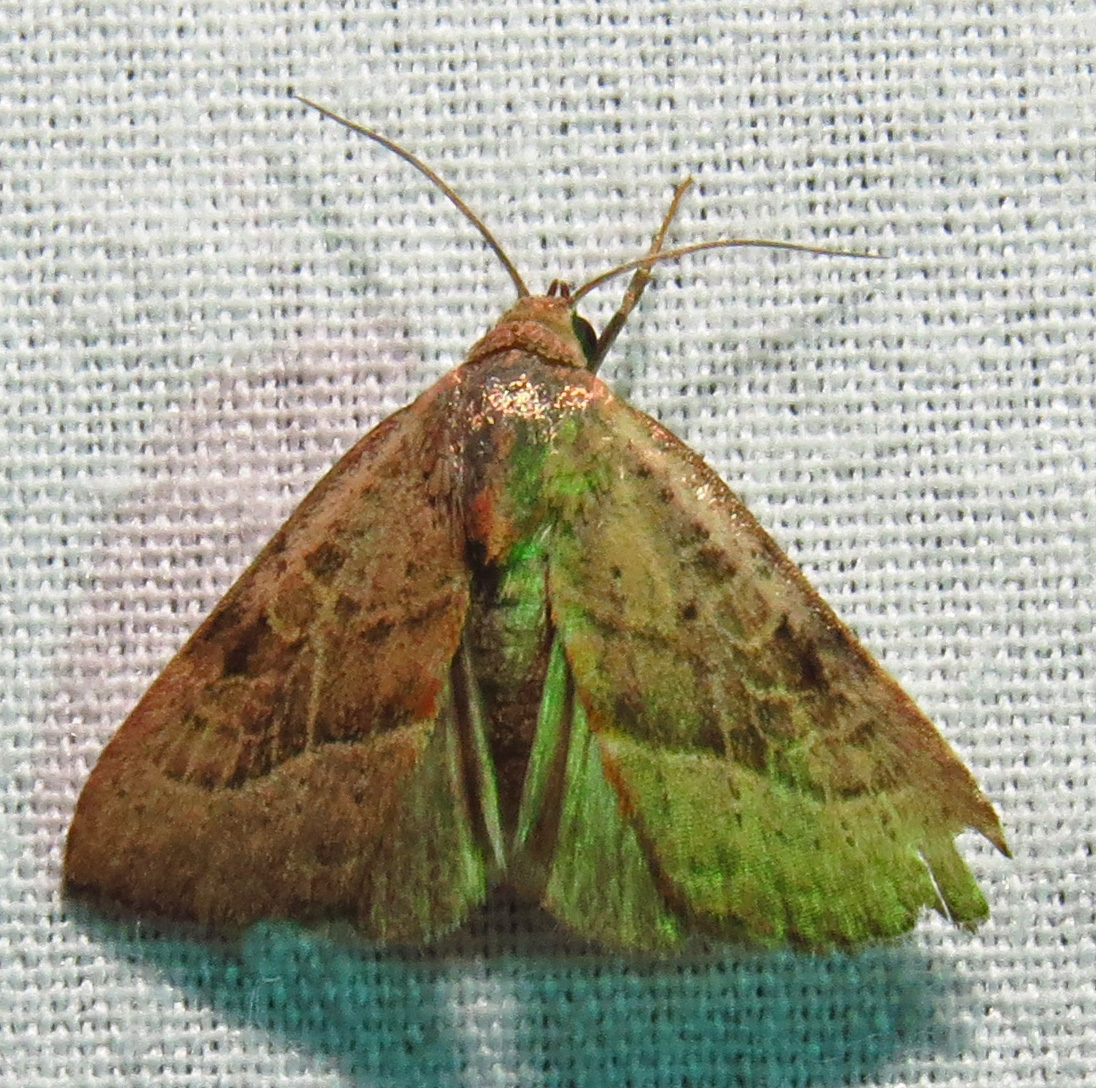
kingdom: Animalia
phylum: Arthropoda
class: Insecta
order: Lepidoptera
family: Noctuidae
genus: Galgula
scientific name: Galgula partita
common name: Wedgeling
